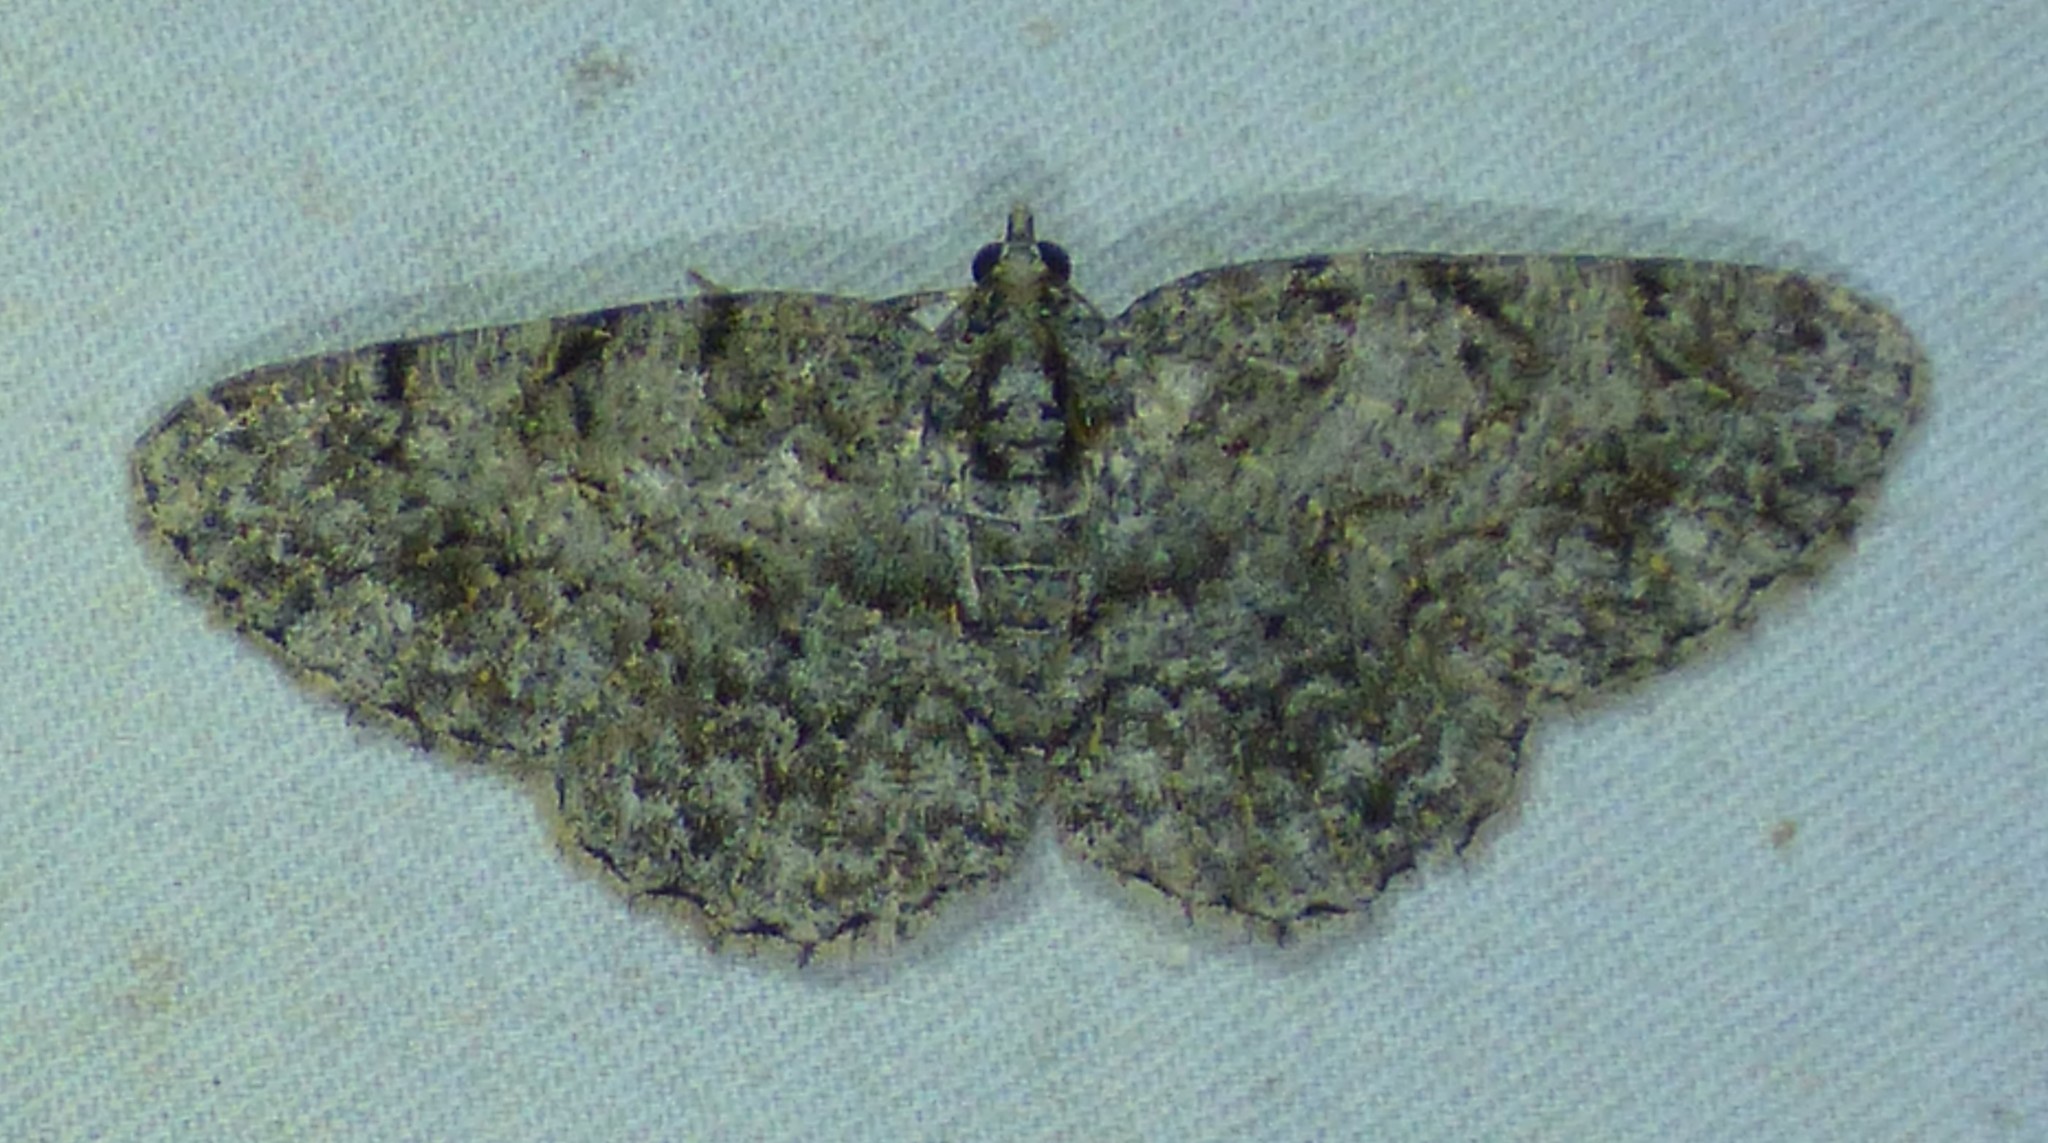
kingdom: Animalia
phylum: Arthropoda
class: Insecta
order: Lepidoptera
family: Geometridae
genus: Protoboarmia
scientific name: Protoboarmia porcelaria
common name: Porcelain gray
